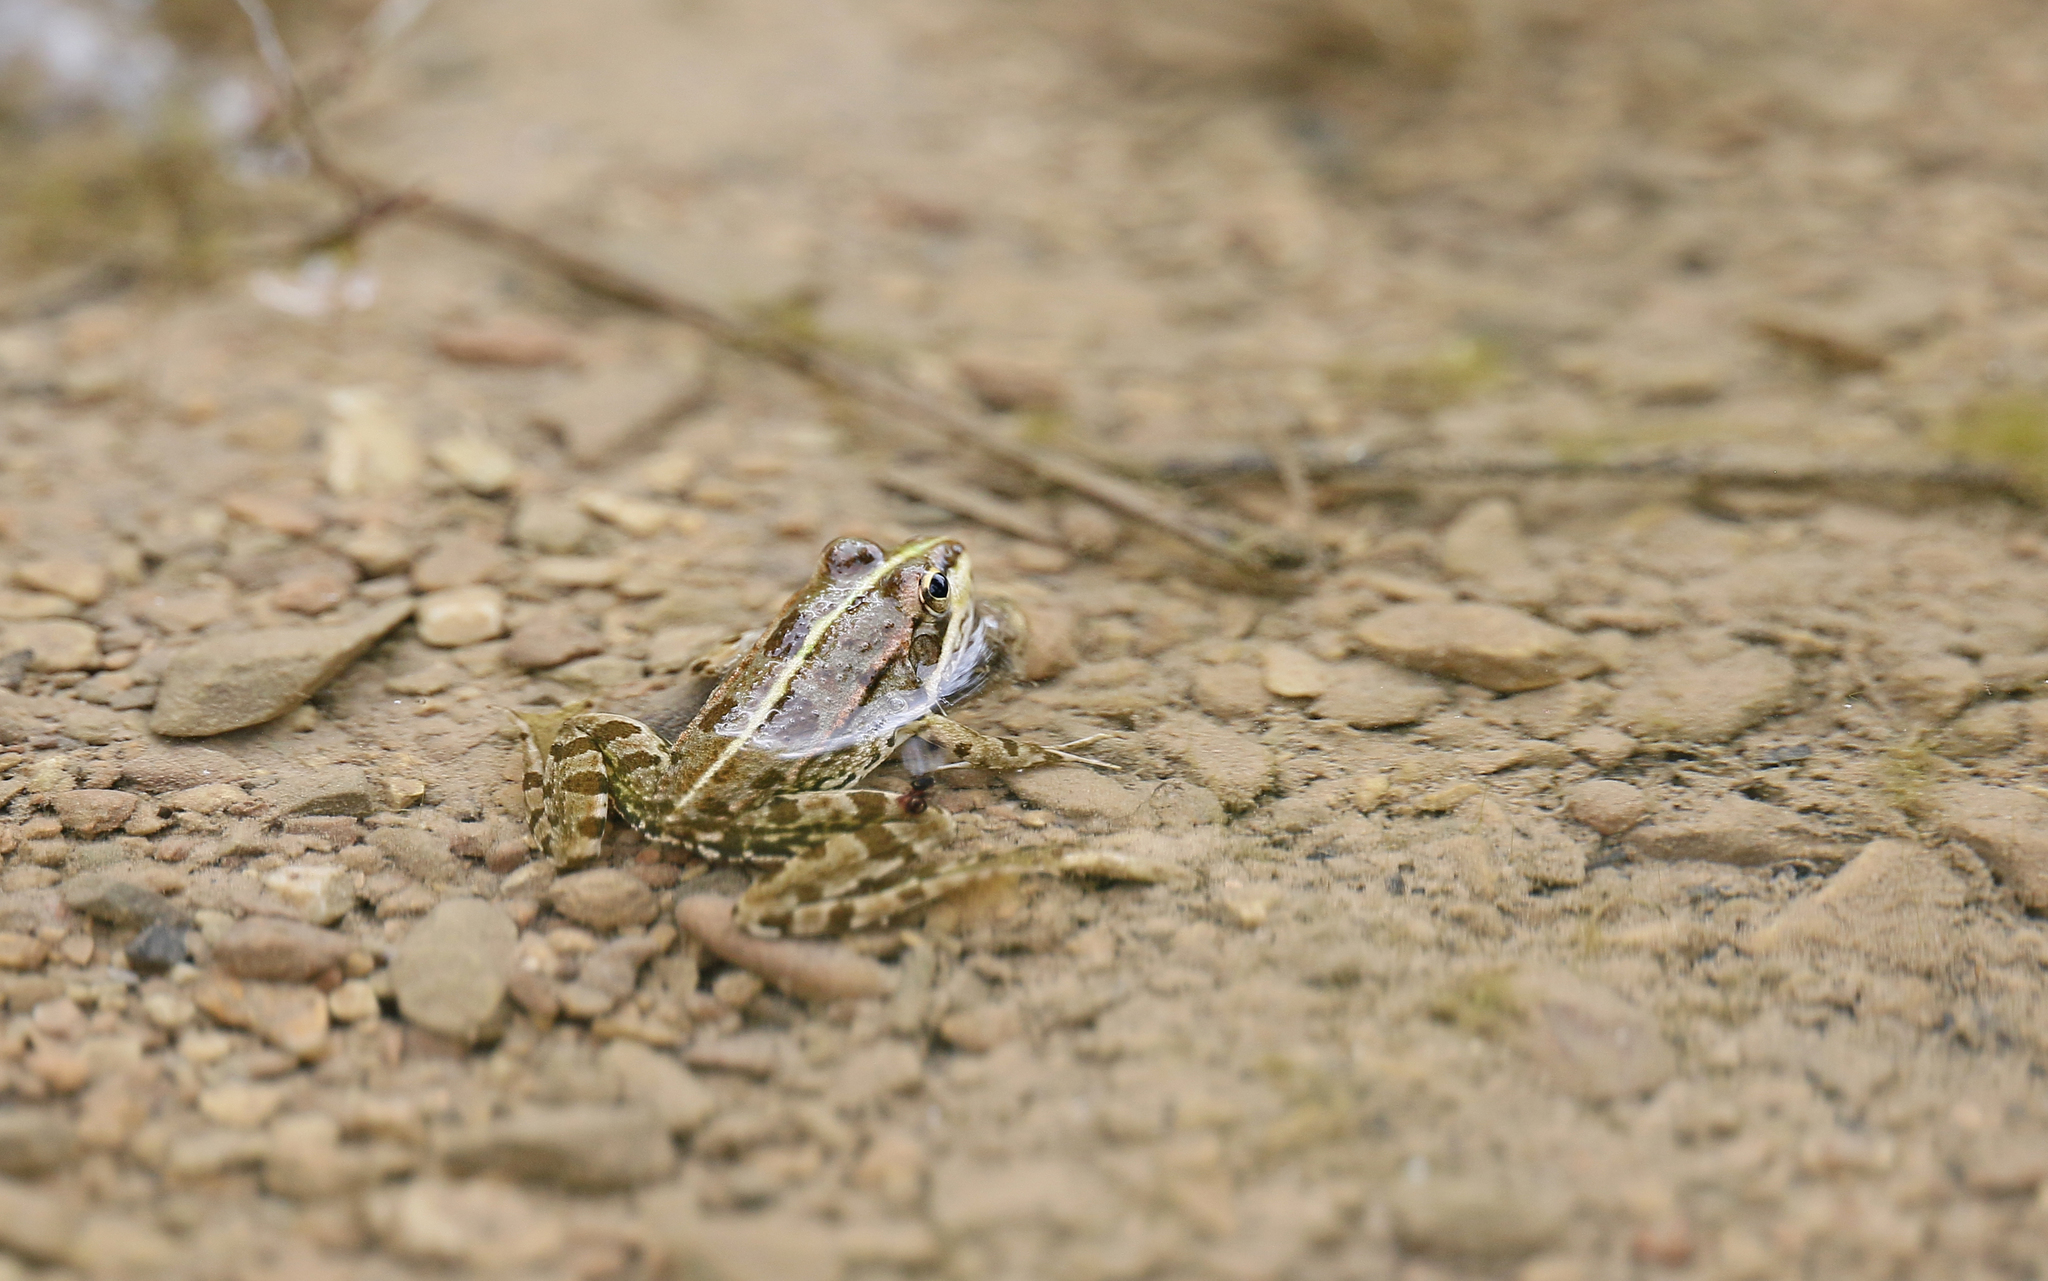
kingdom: Animalia
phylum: Chordata
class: Amphibia
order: Anura
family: Ranidae
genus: Pelophylax
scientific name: Pelophylax perezi
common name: Perez's frog
